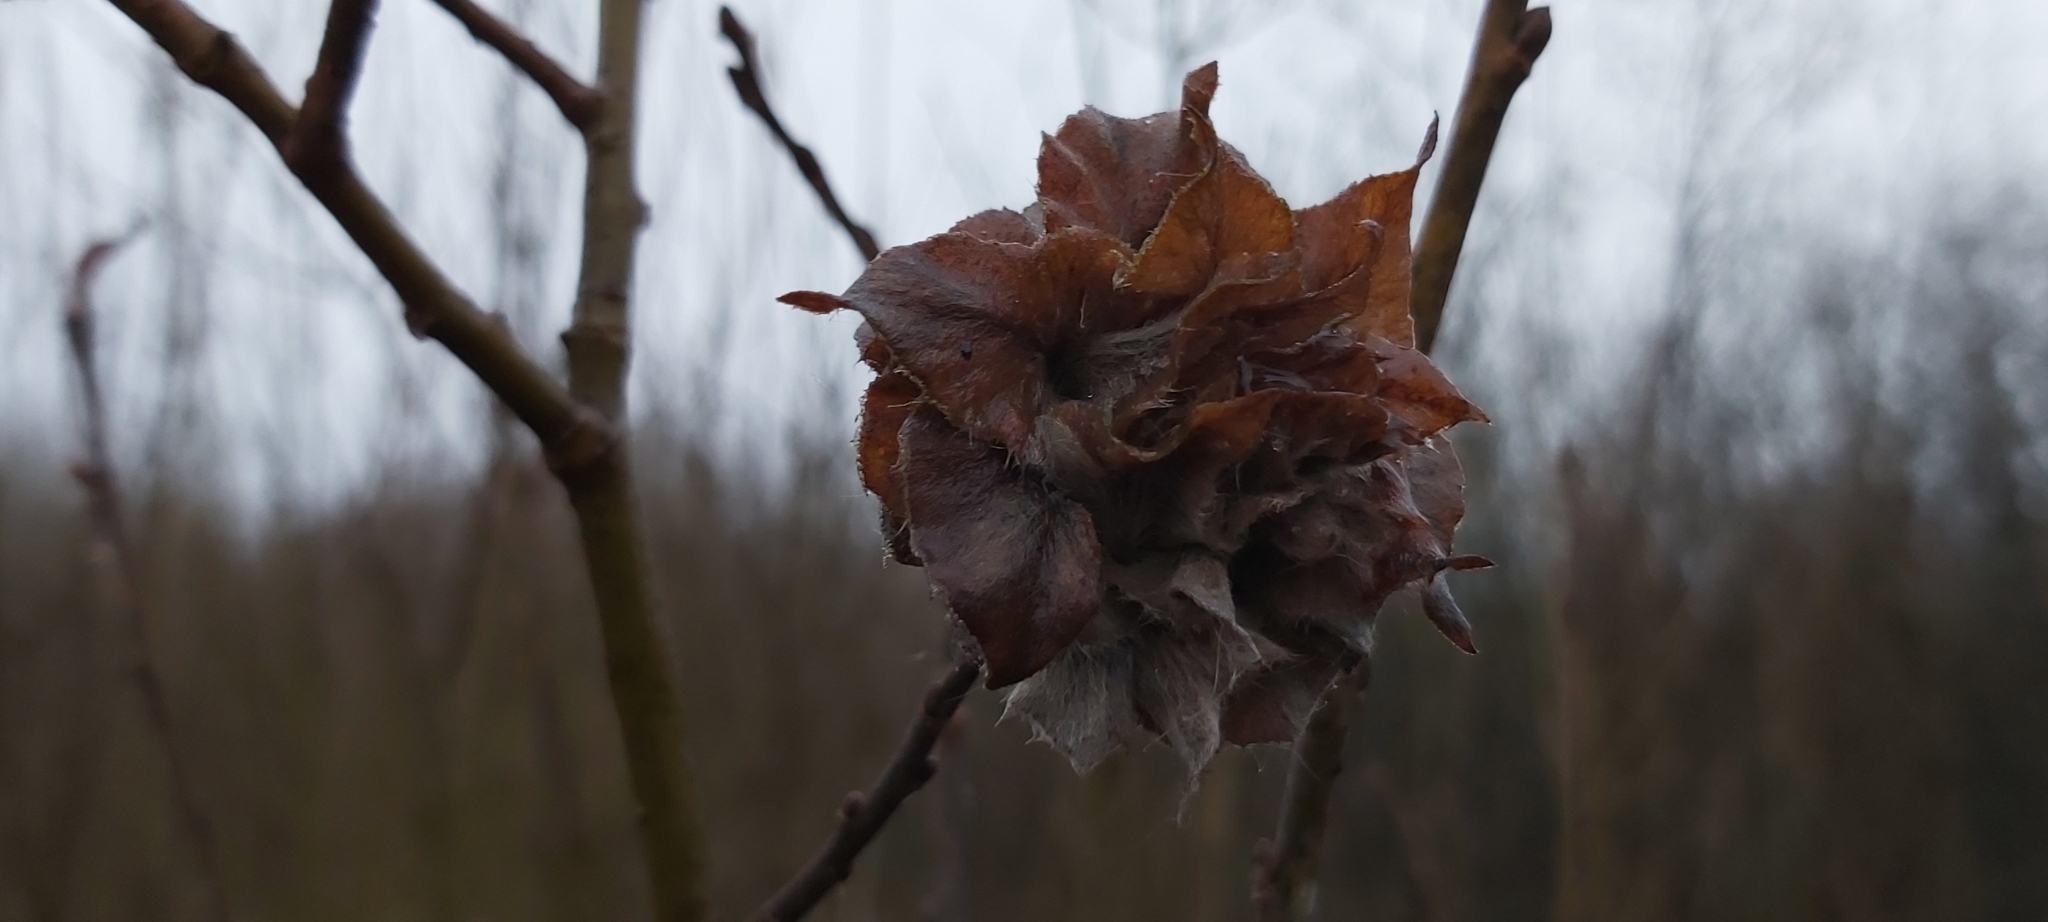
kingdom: Animalia
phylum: Arthropoda
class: Insecta
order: Diptera
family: Cecidomyiidae
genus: Rabdophaga
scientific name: Rabdophaga rosaria
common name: Willow rose gall midge
